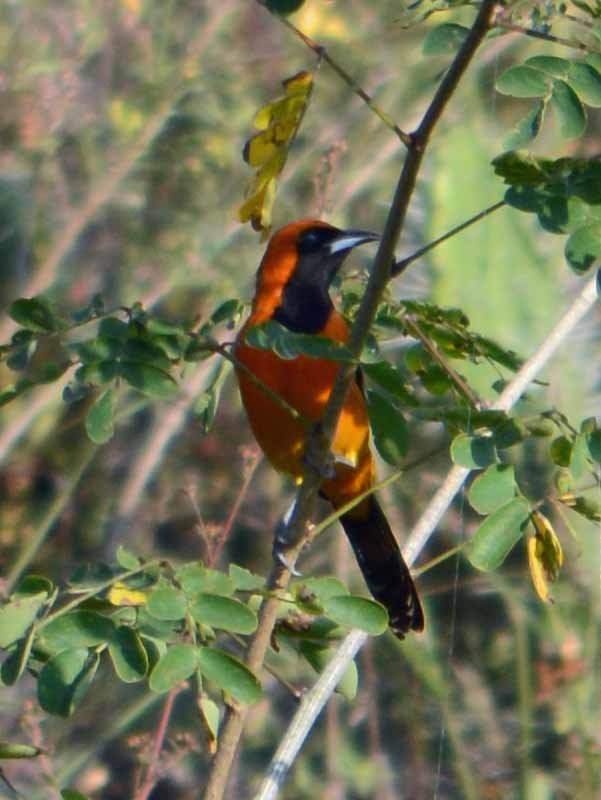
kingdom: Animalia
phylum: Chordata
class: Aves
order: Passeriformes
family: Icteridae
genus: Icterus
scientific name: Icterus cucullatus
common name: Hooded oriole
